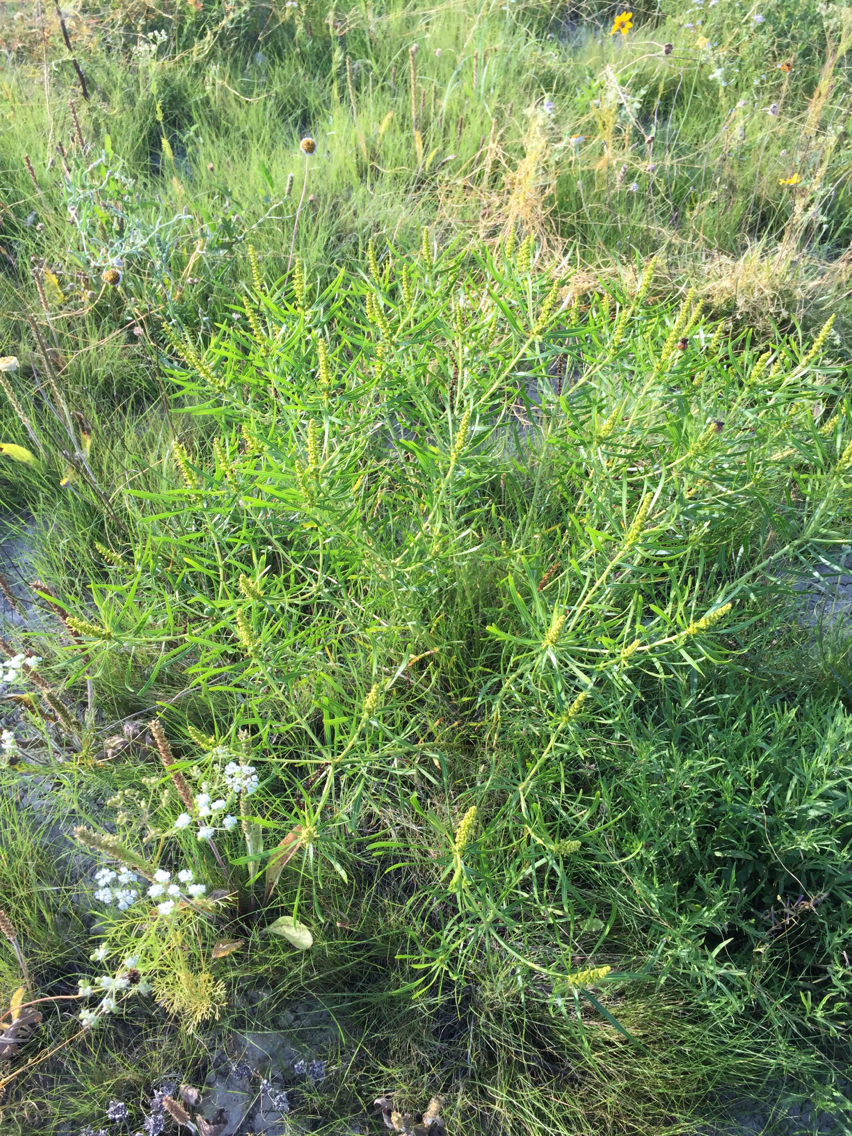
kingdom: Plantae
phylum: Tracheophyta
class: Magnoliopsida
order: Malpighiales
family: Euphorbiaceae
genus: Stillingia
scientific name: Stillingia texana
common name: Texas stillingia
